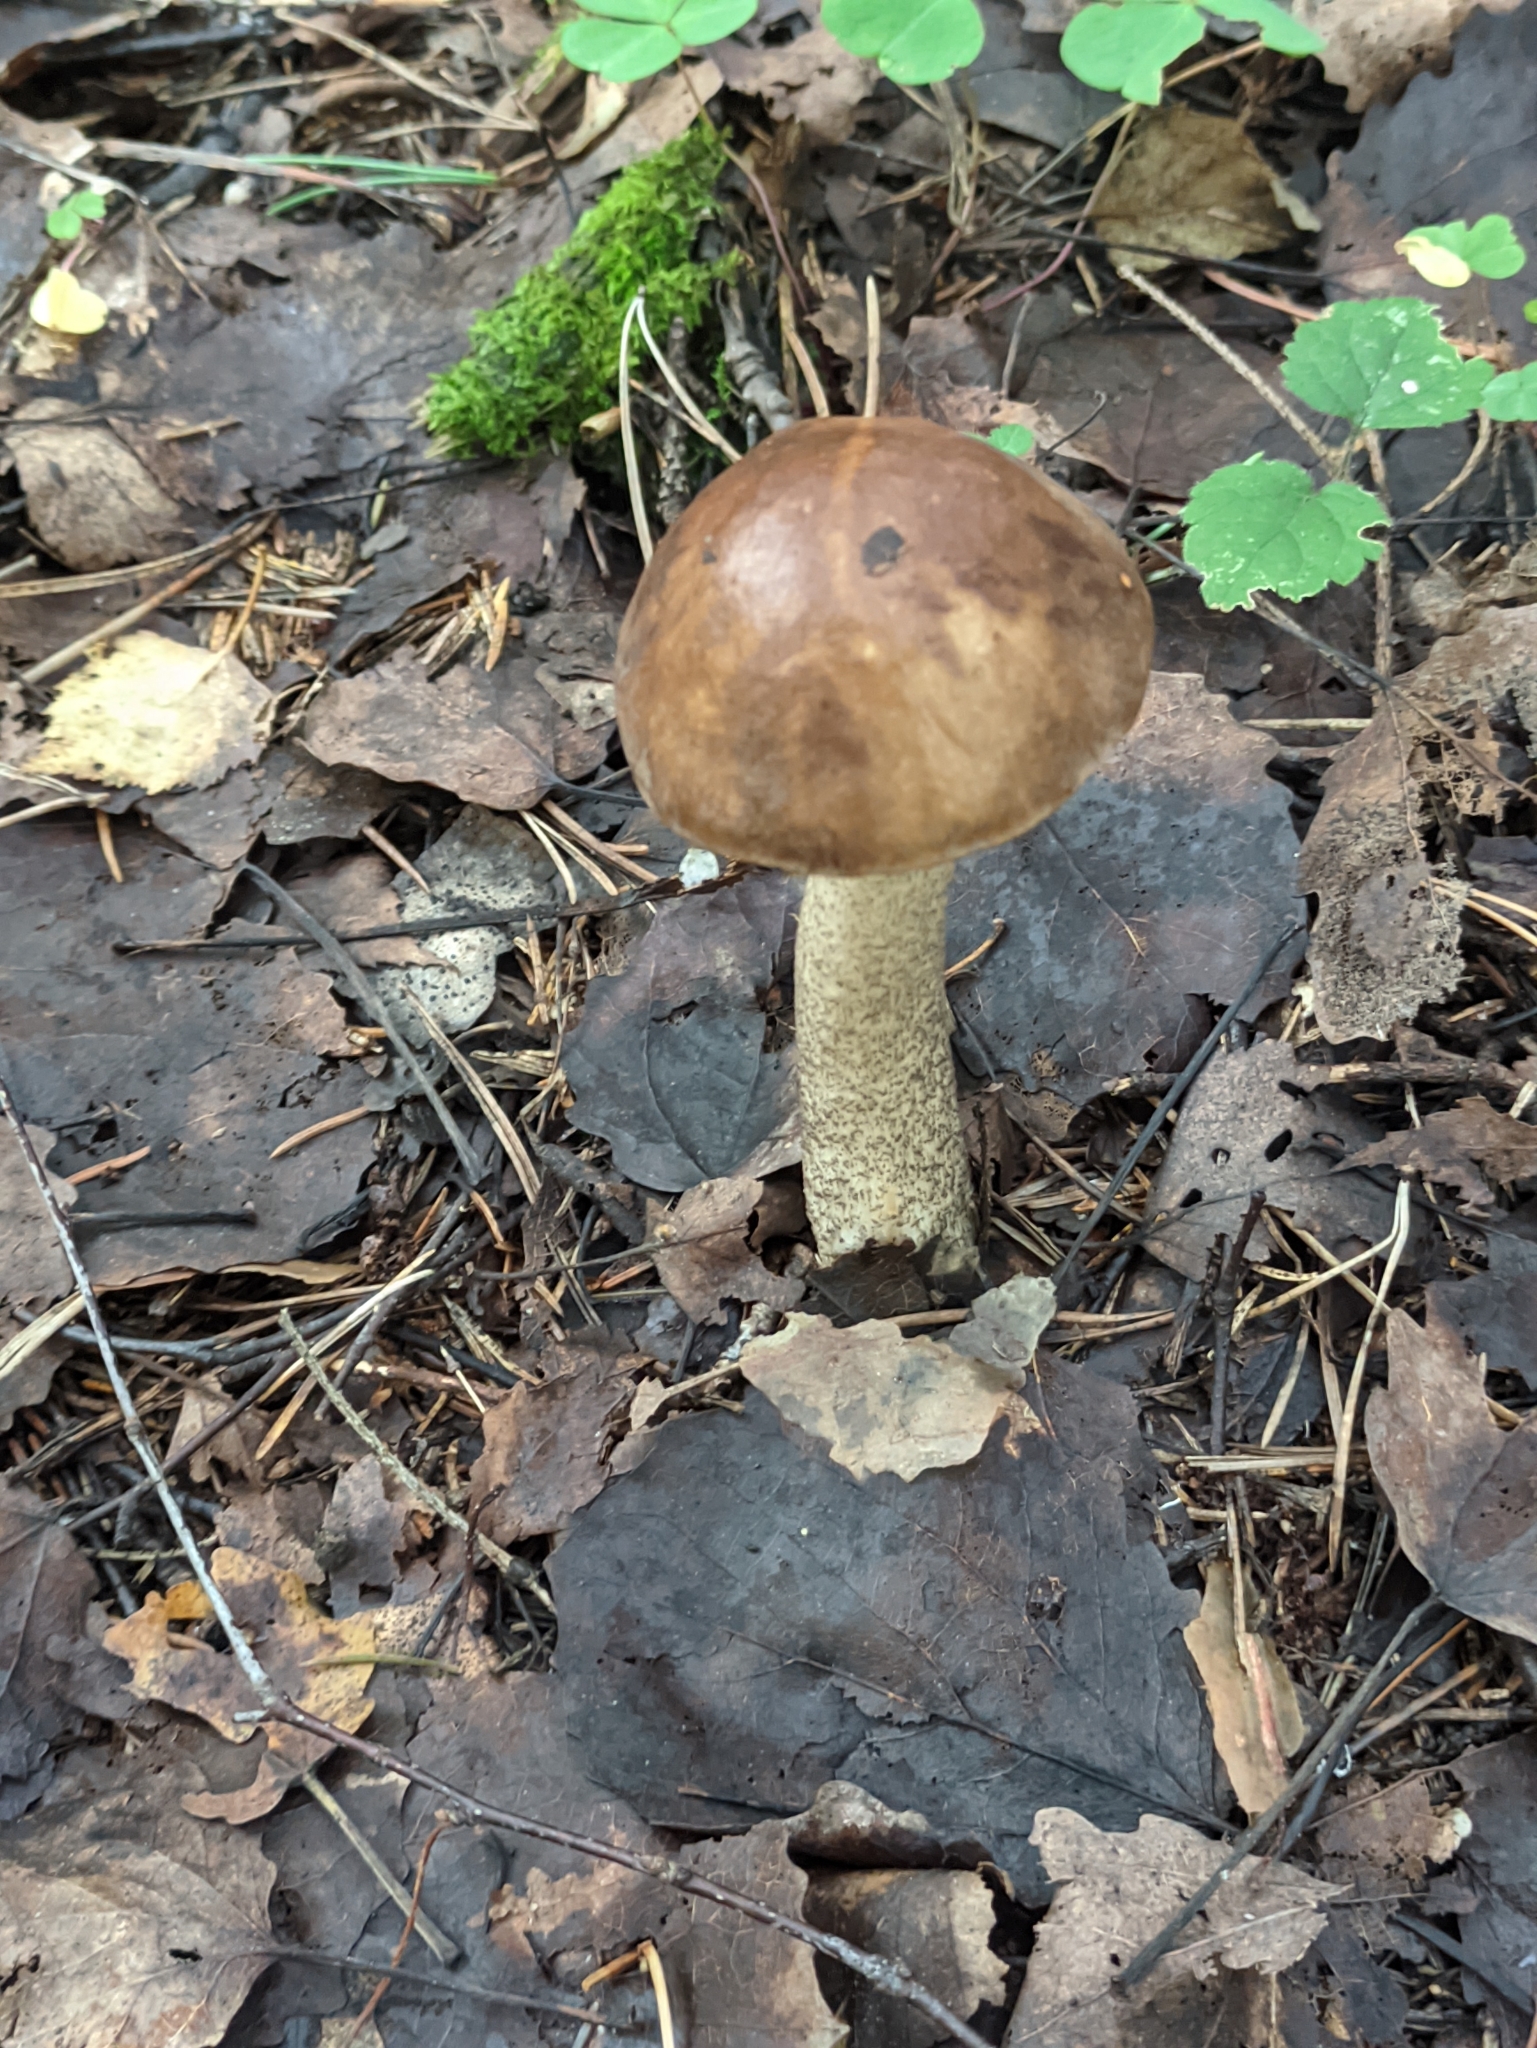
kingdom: Fungi
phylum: Basidiomycota
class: Agaricomycetes
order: Boletales
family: Boletaceae
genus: Leccinum
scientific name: Leccinum scabrum
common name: Blushing bolete
